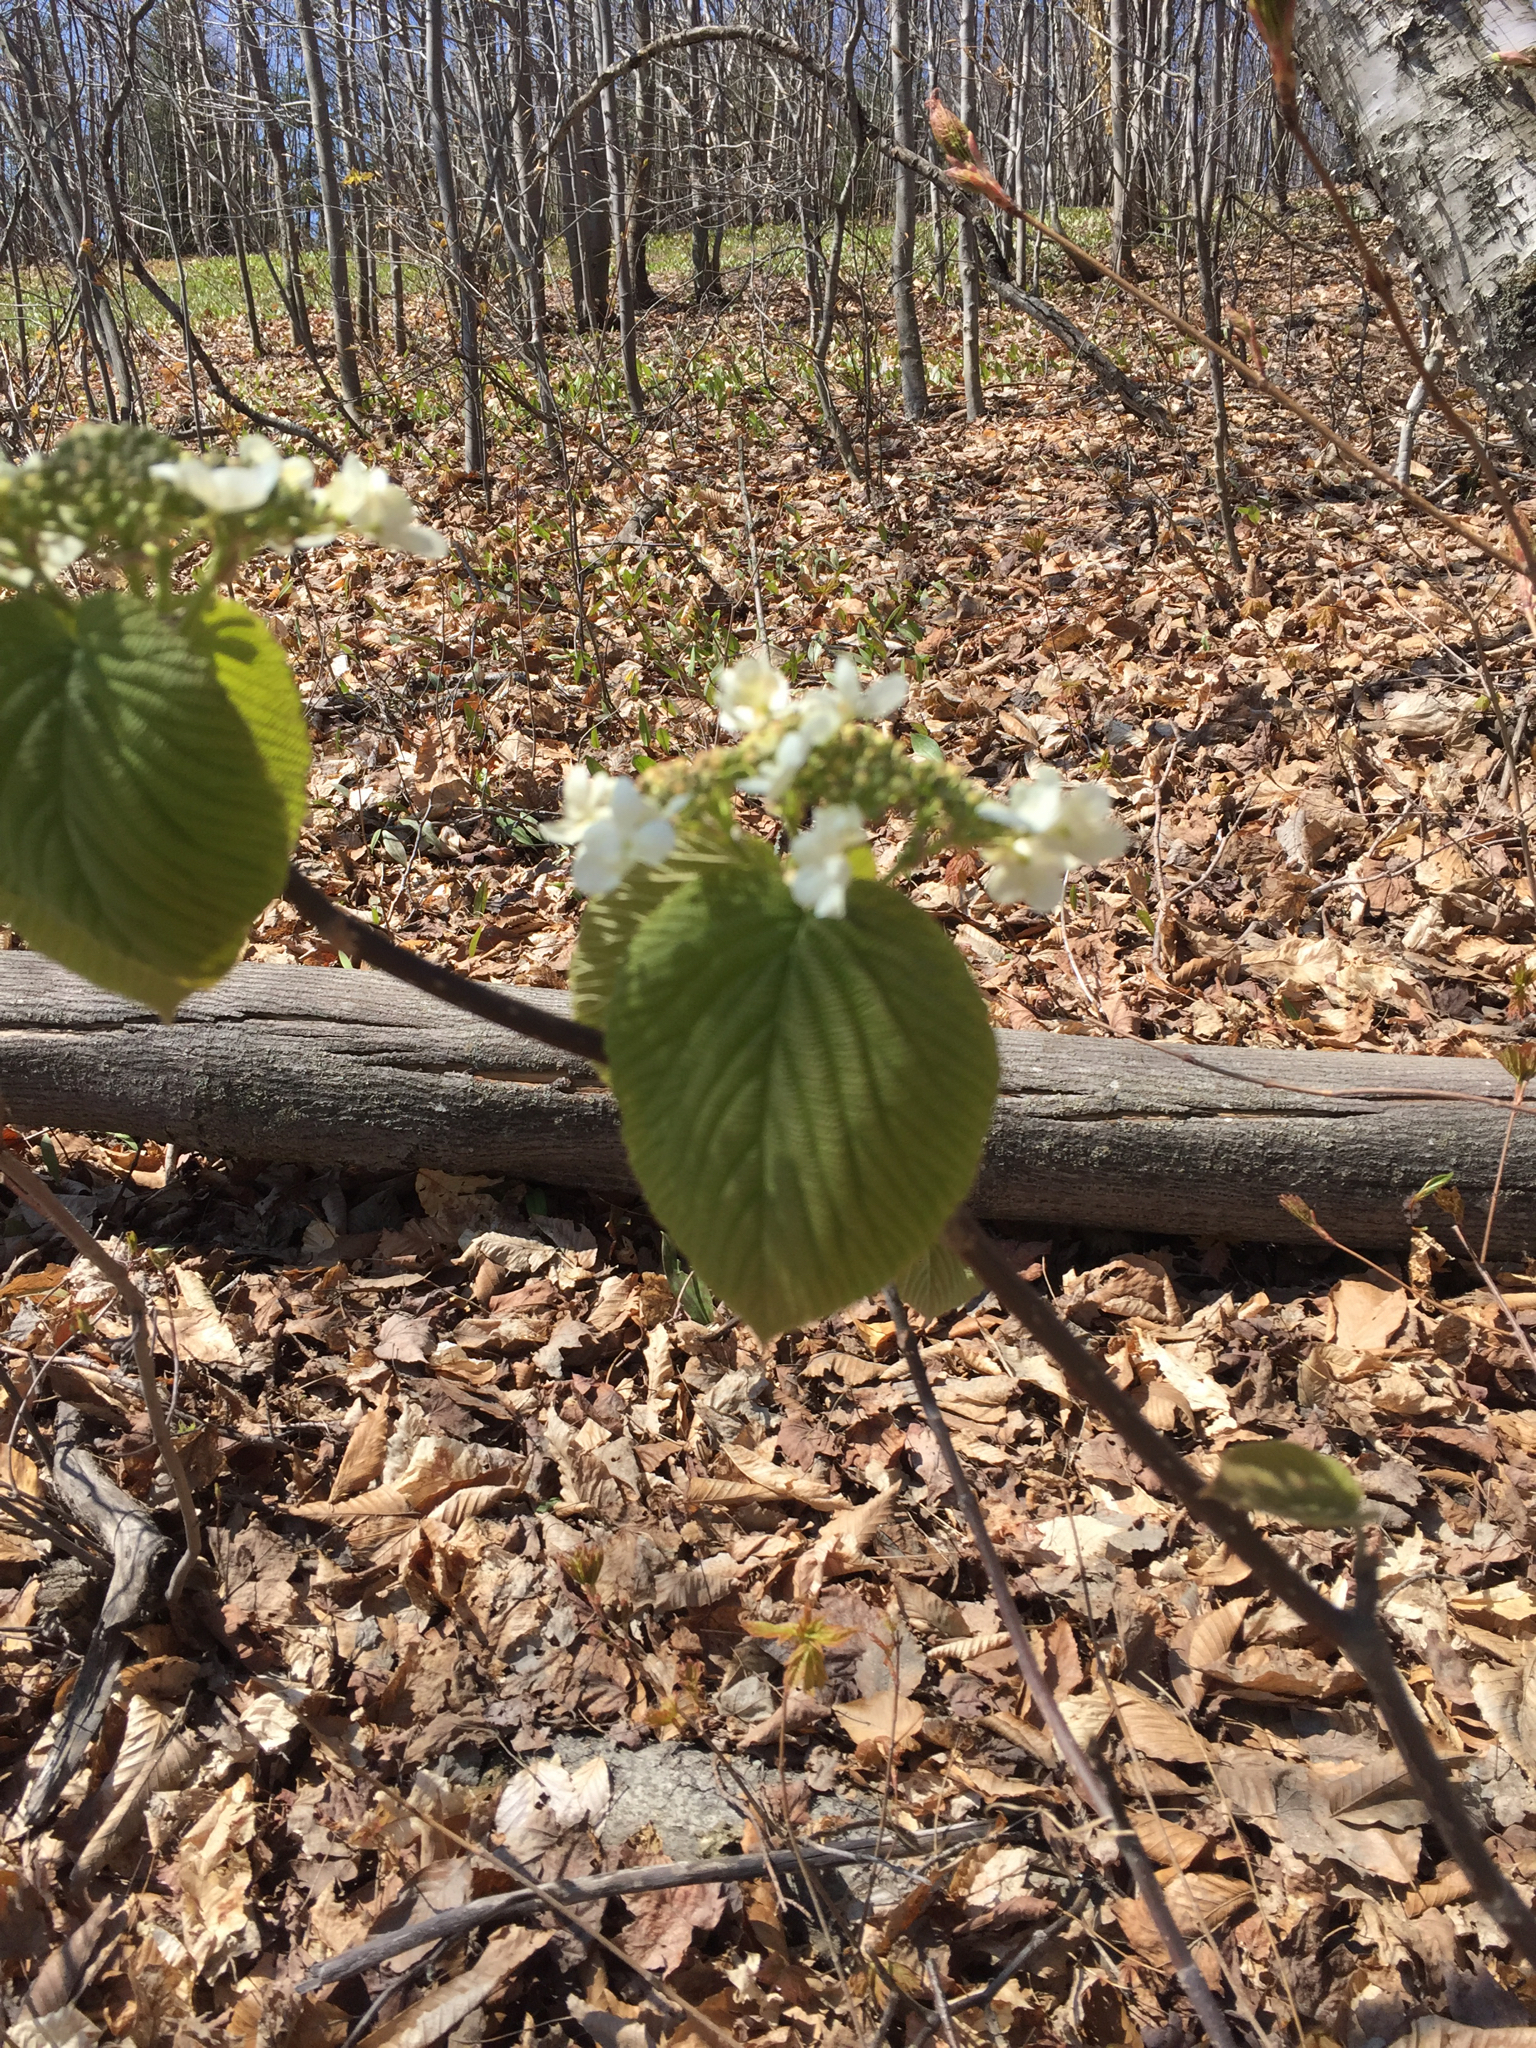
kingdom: Plantae
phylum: Tracheophyta
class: Magnoliopsida
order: Dipsacales
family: Viburnaceae
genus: Viburnum
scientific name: Viburnum lantanoides
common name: Hobblebush
